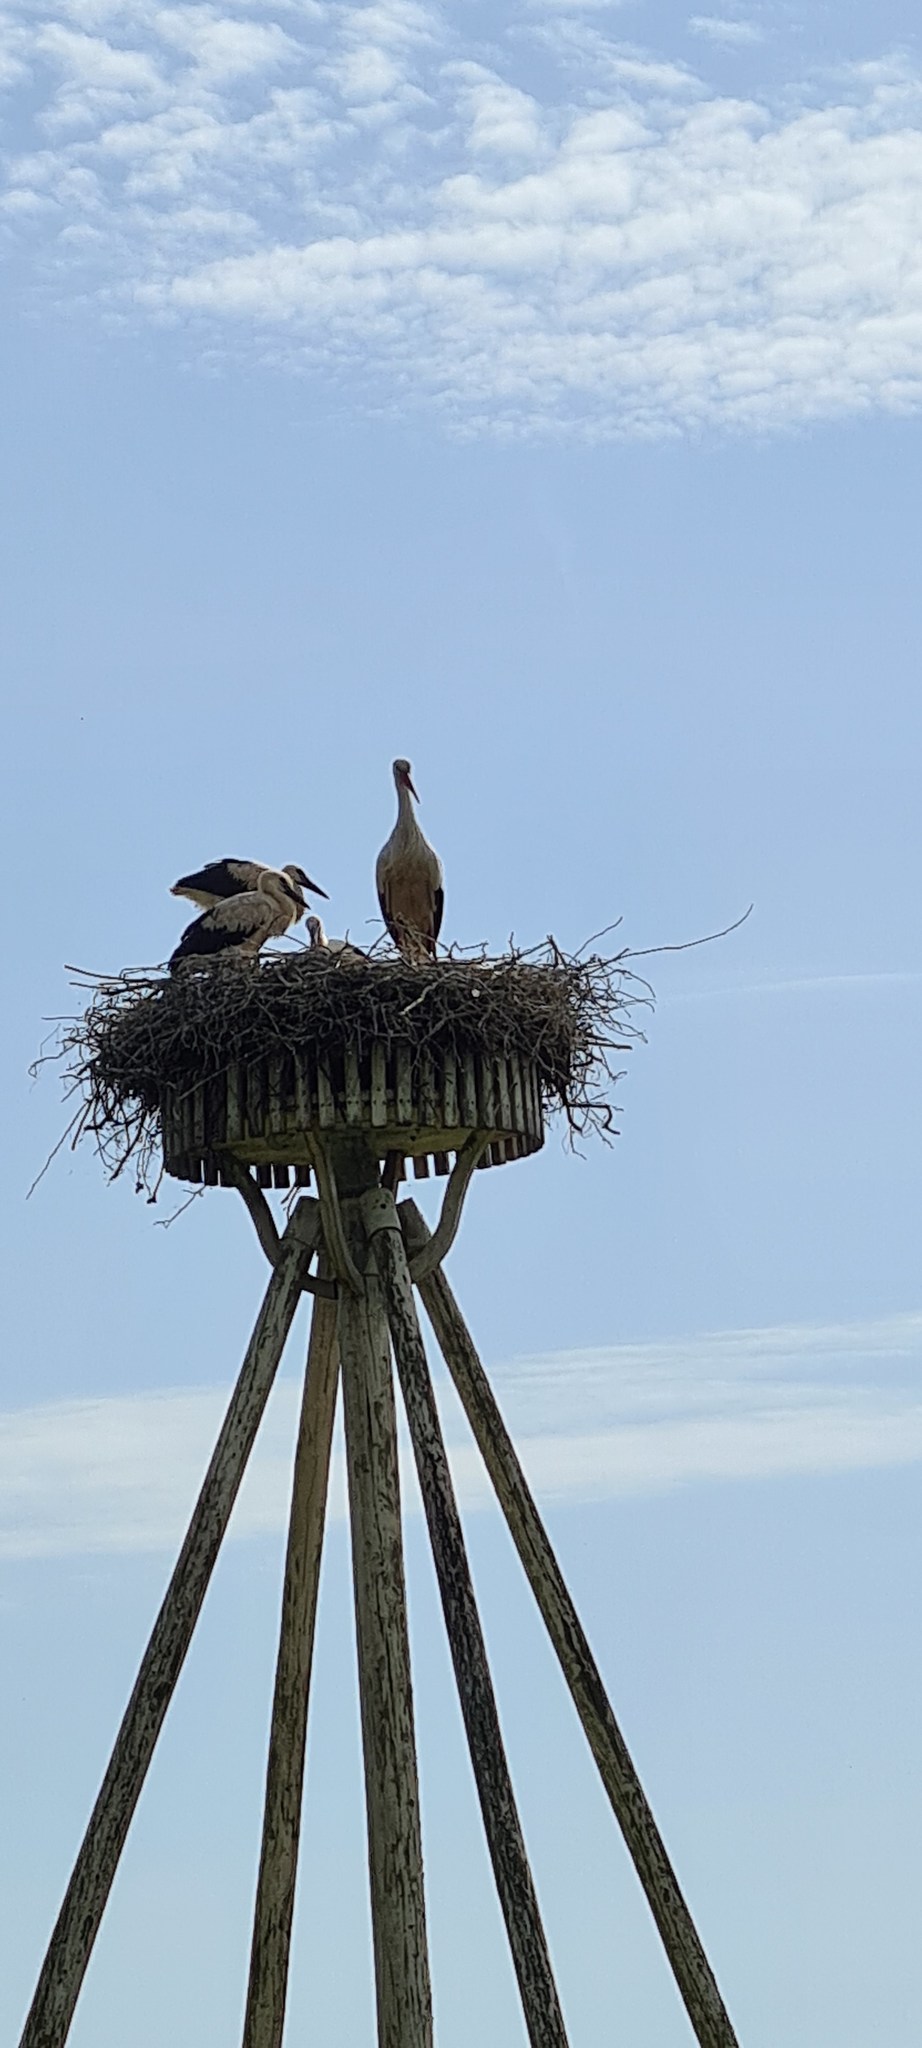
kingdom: Animalia
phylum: Chordata
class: Aves
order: Ciconiiformes
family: Ciconiidae
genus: Ciconia
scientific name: Ciconia ciconia
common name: White stork
